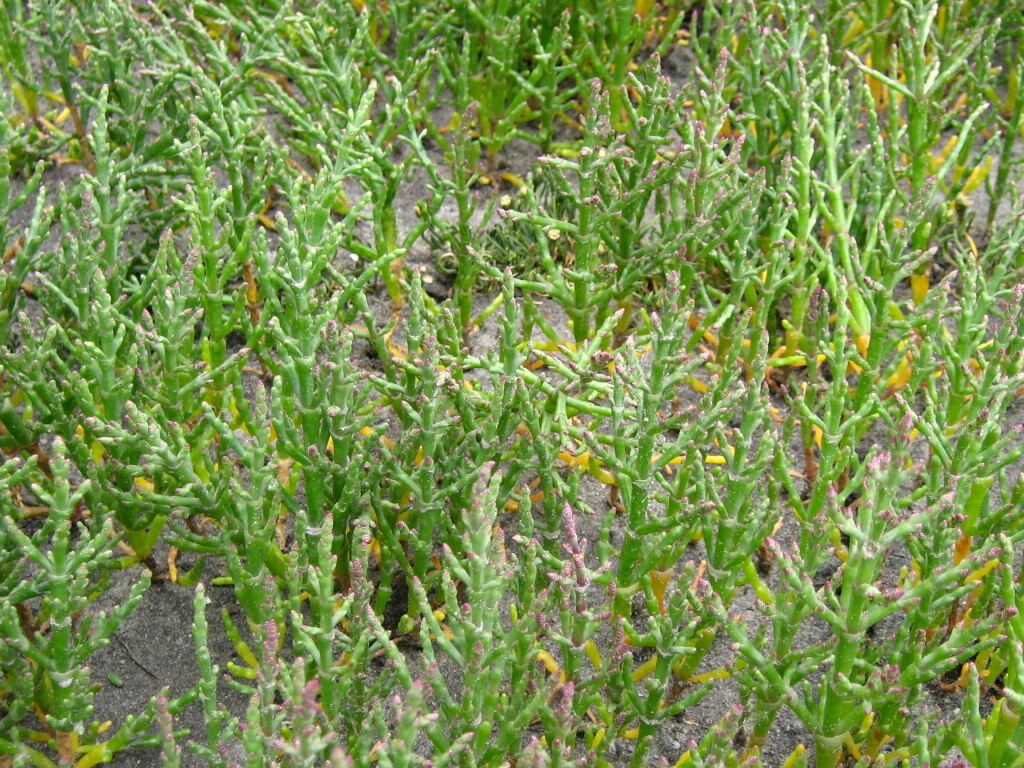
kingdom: Plantae
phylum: Tracheophyta
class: Magnoliopsida
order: Caryophyllales
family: Amaranthaceae
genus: Salicornia
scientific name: Salicornia europaea
